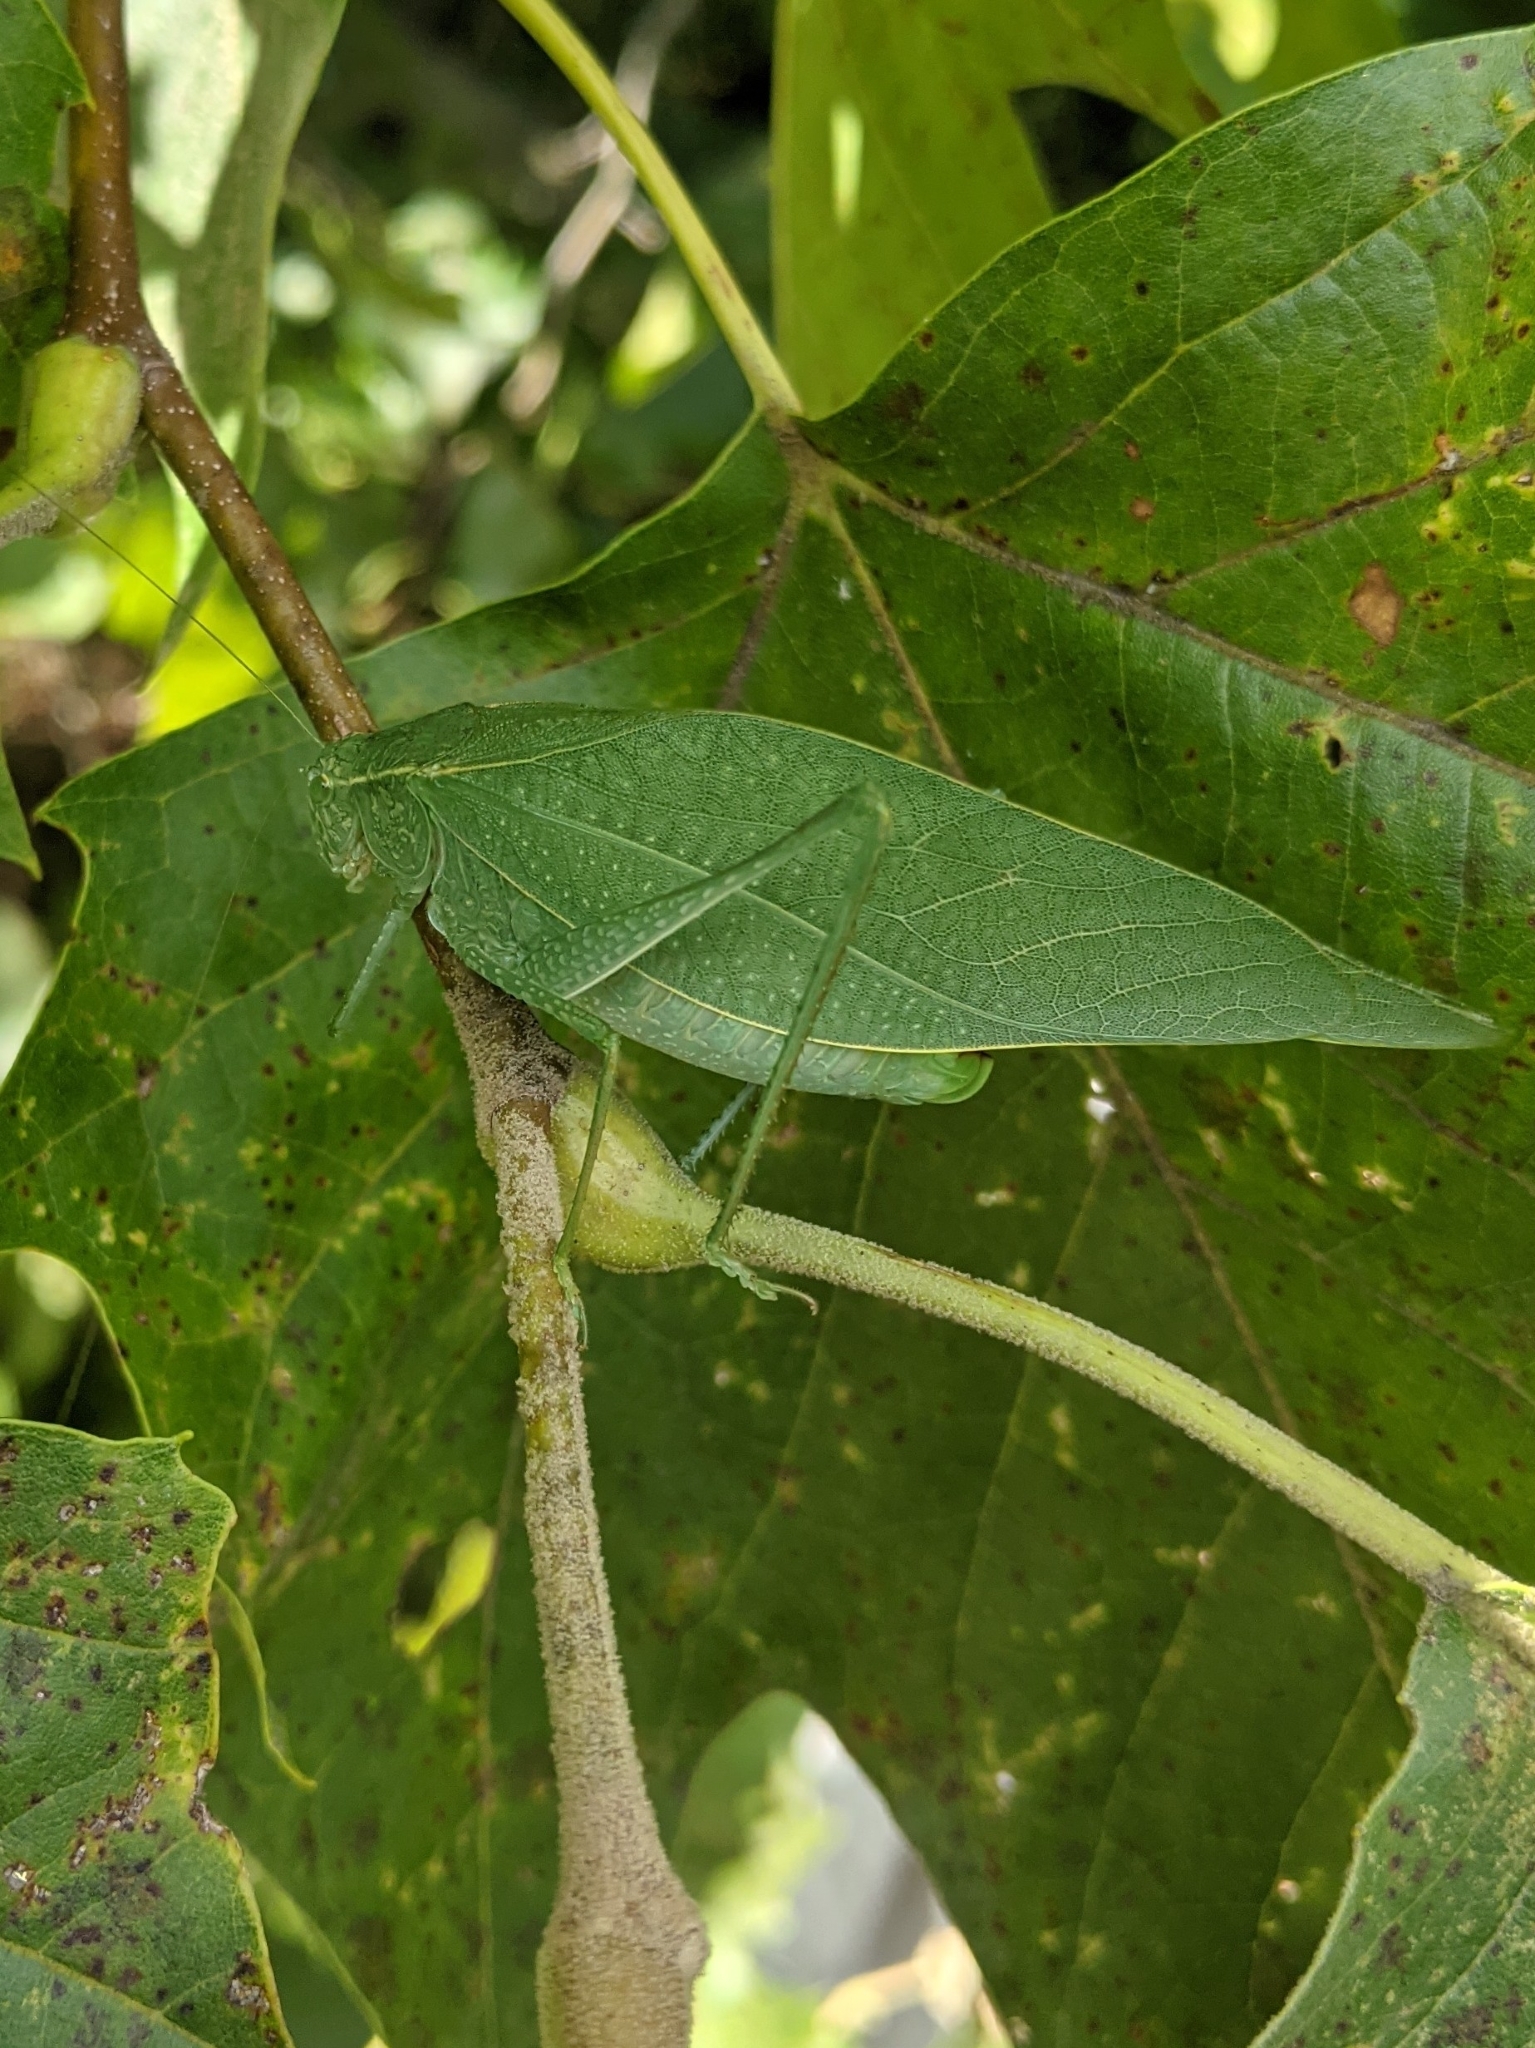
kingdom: Animalia
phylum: Arthropoda
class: Insecta
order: Orthoptera
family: Tettigoniidae
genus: Microcentrum
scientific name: Microcentrum rhombifolium
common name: Broad-winged katydid
